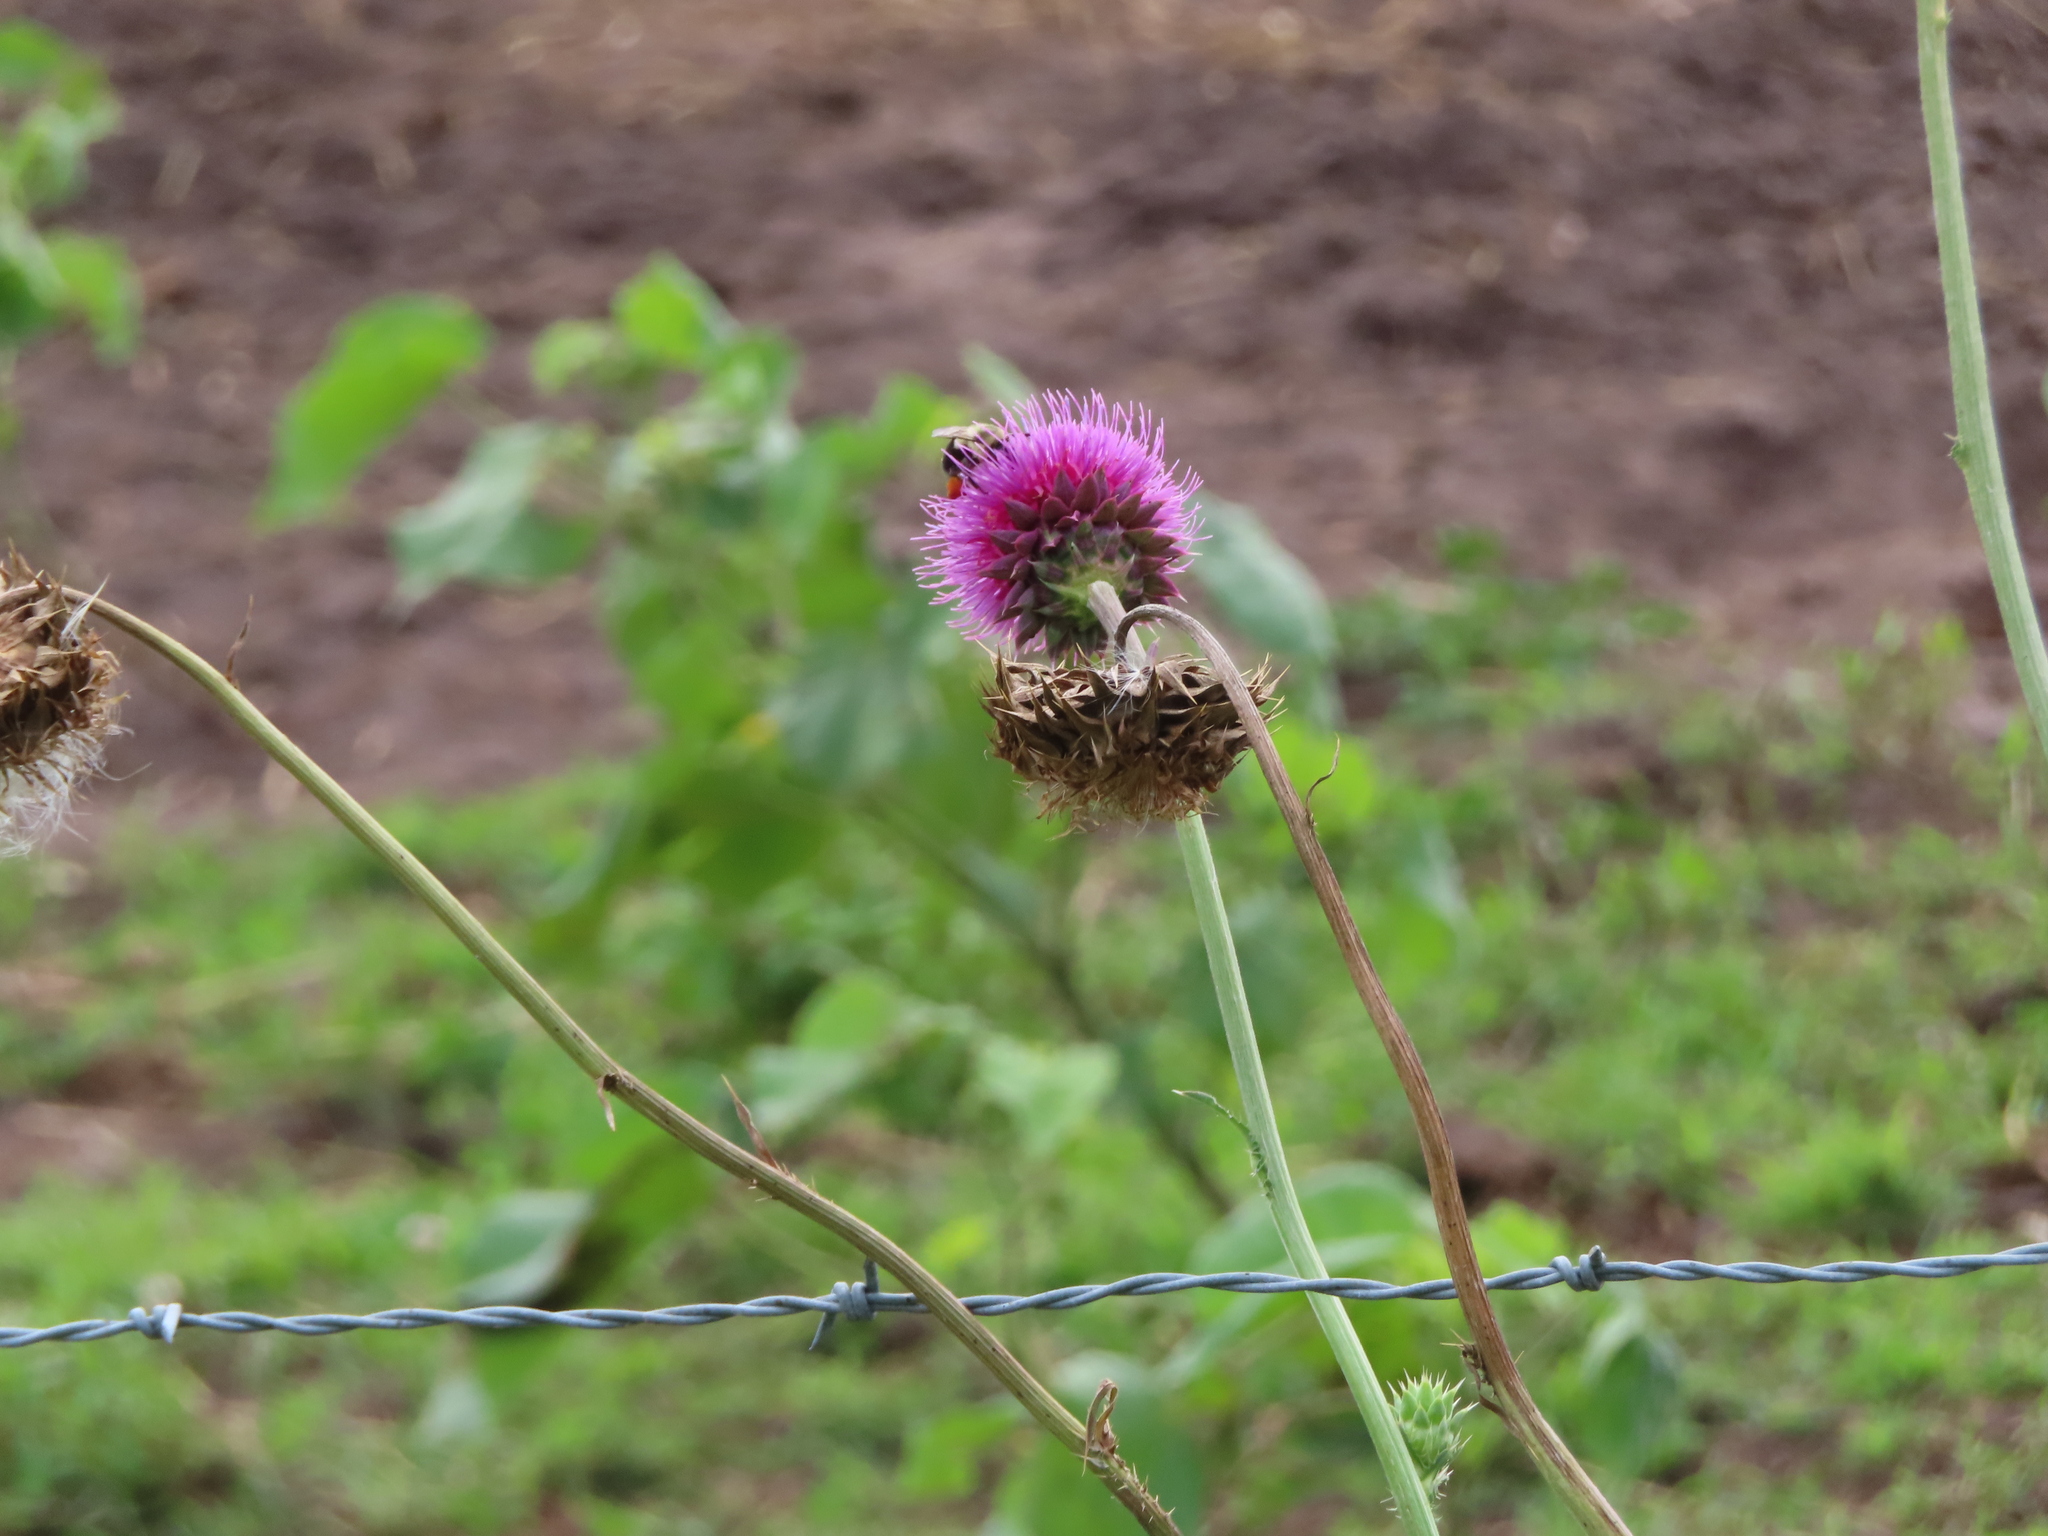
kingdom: Animalia
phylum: Arthropoda
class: Insecta
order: Hymenoptera
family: Apidae
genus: Bombus
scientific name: Bombus impatiens
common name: Common eastern bumble bee
